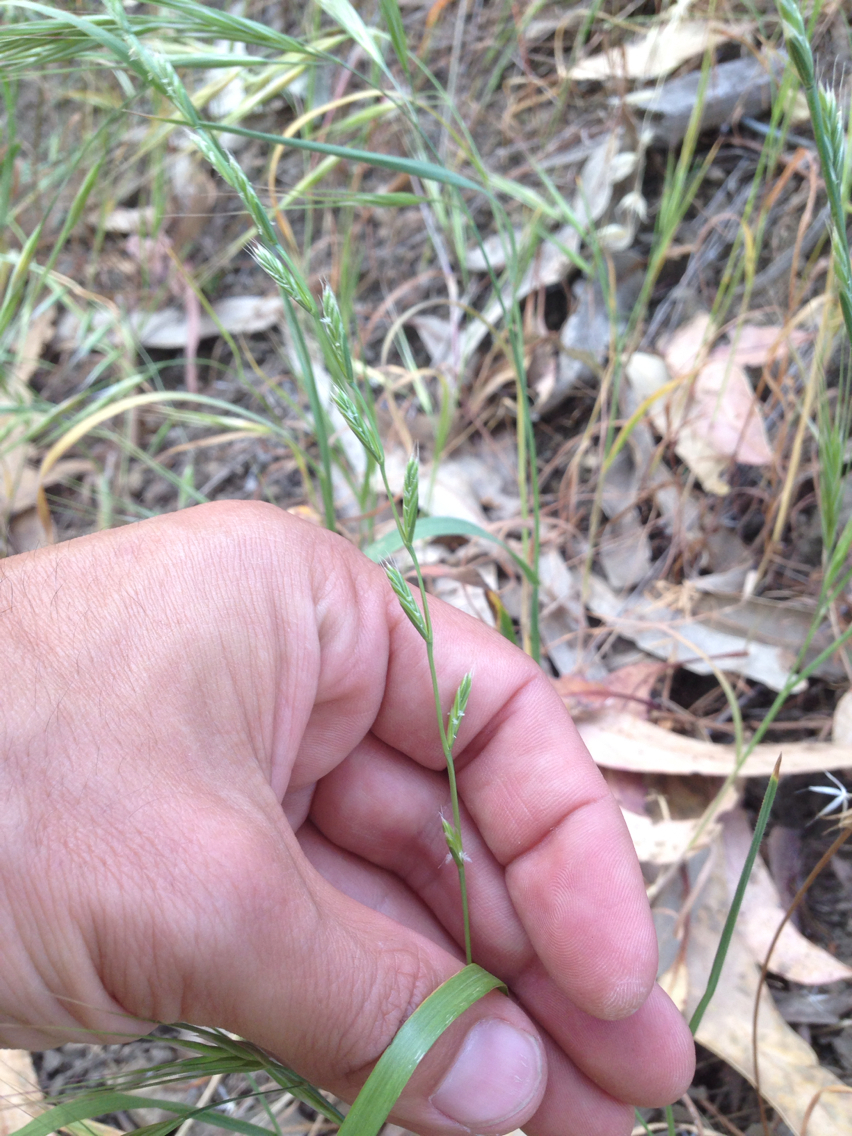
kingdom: Plantae
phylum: Tracheophyta
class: Liliopsida
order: Poales
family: Poaceae
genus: Lolium
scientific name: Lolium perenne
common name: Perennial ryegrass
